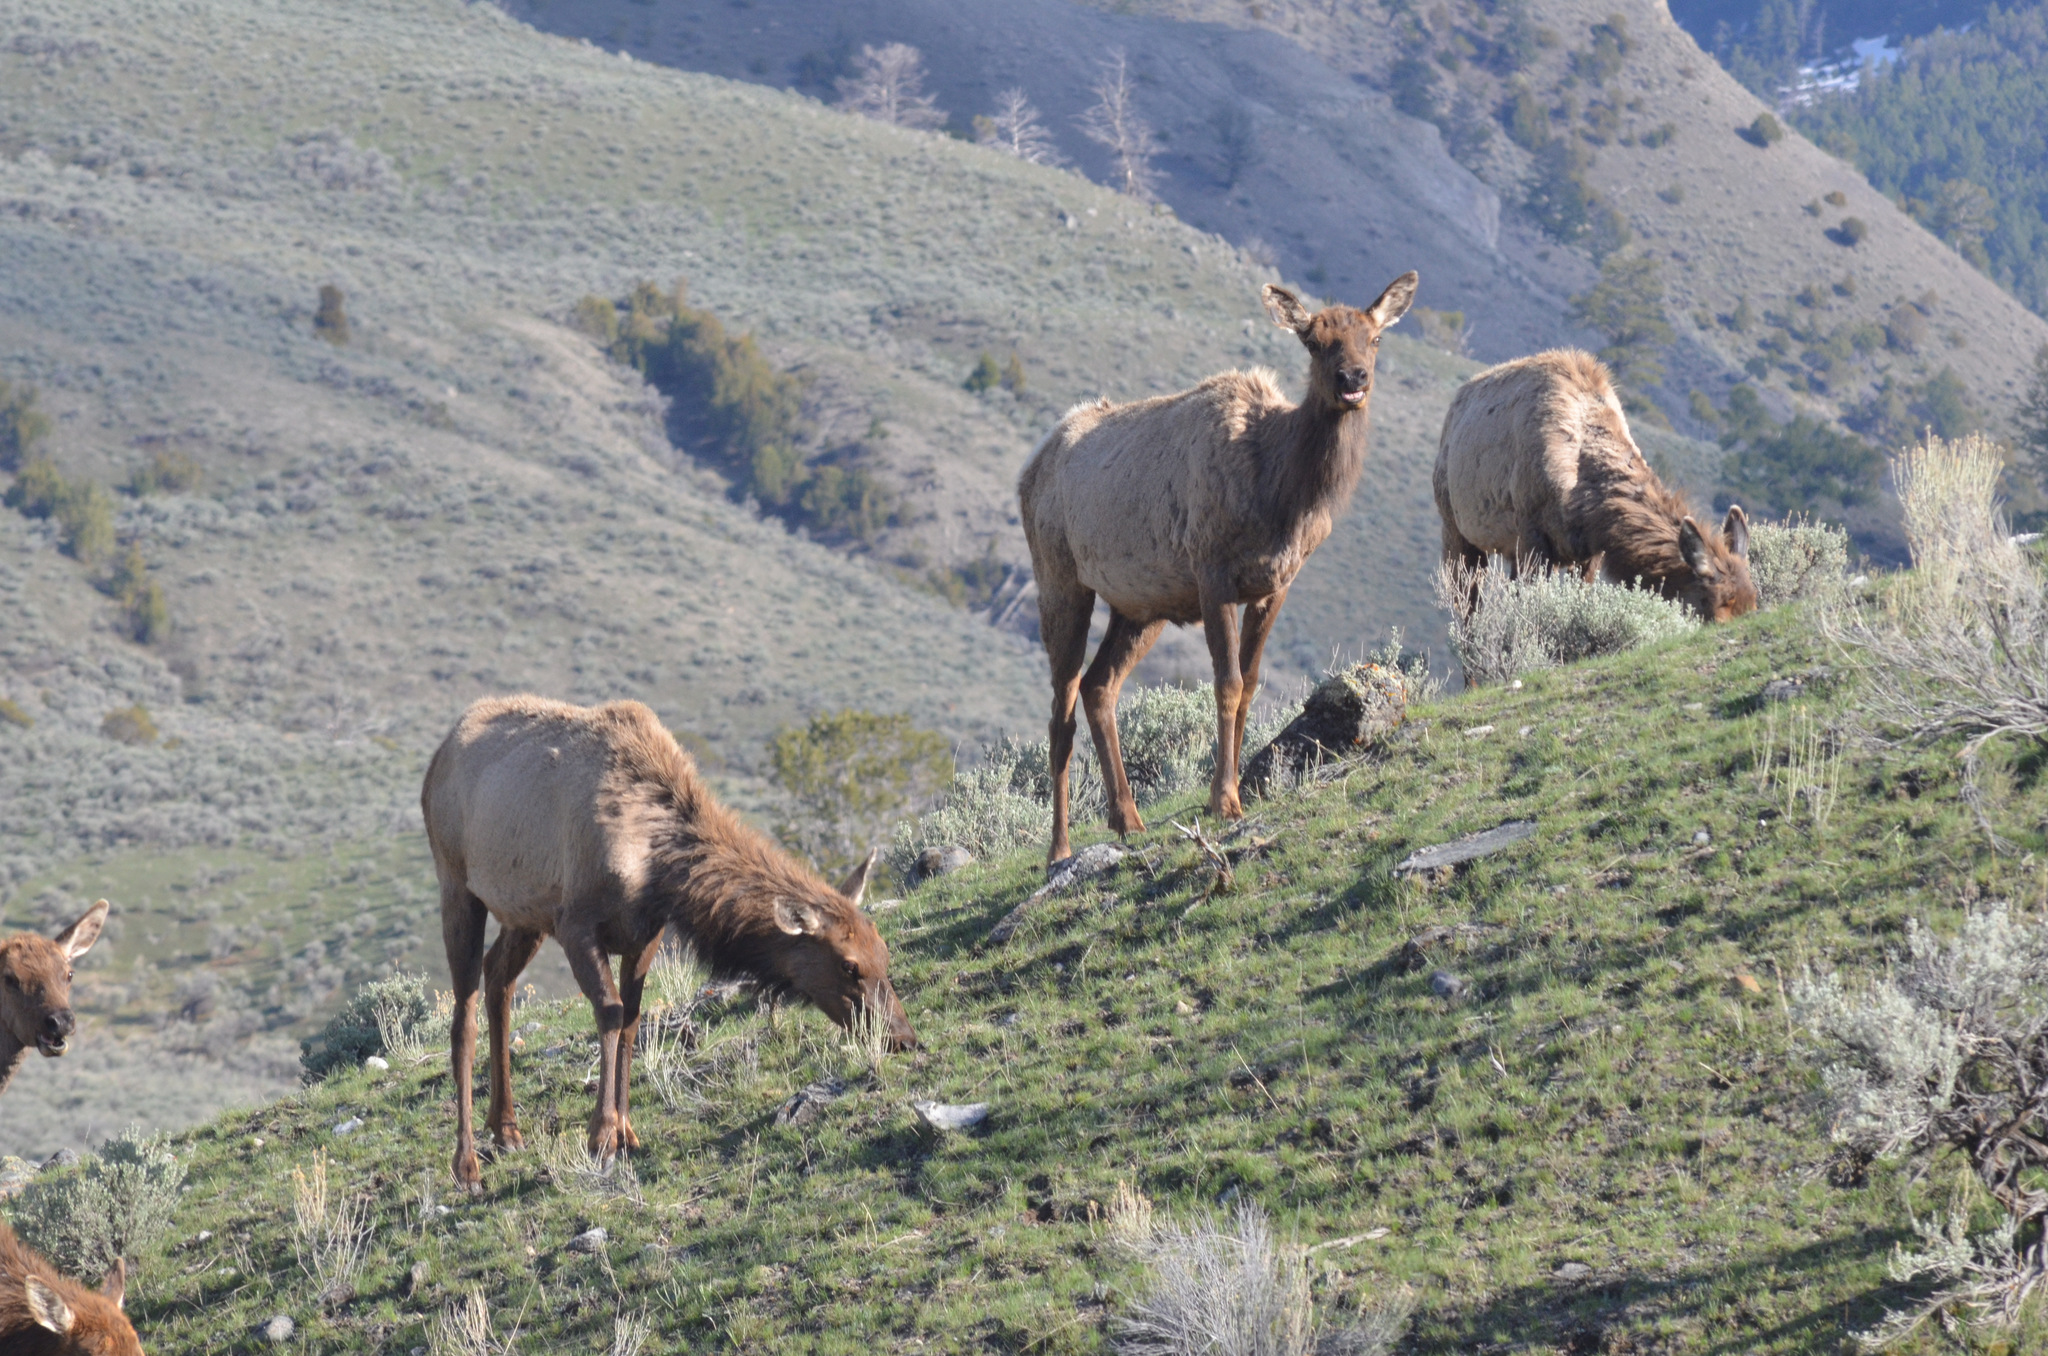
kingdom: Animalia
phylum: Chordata
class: Mammalia
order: Artiodactyla
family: Cervidae
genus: Cervus
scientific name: Cervus elaphus
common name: Red deer
